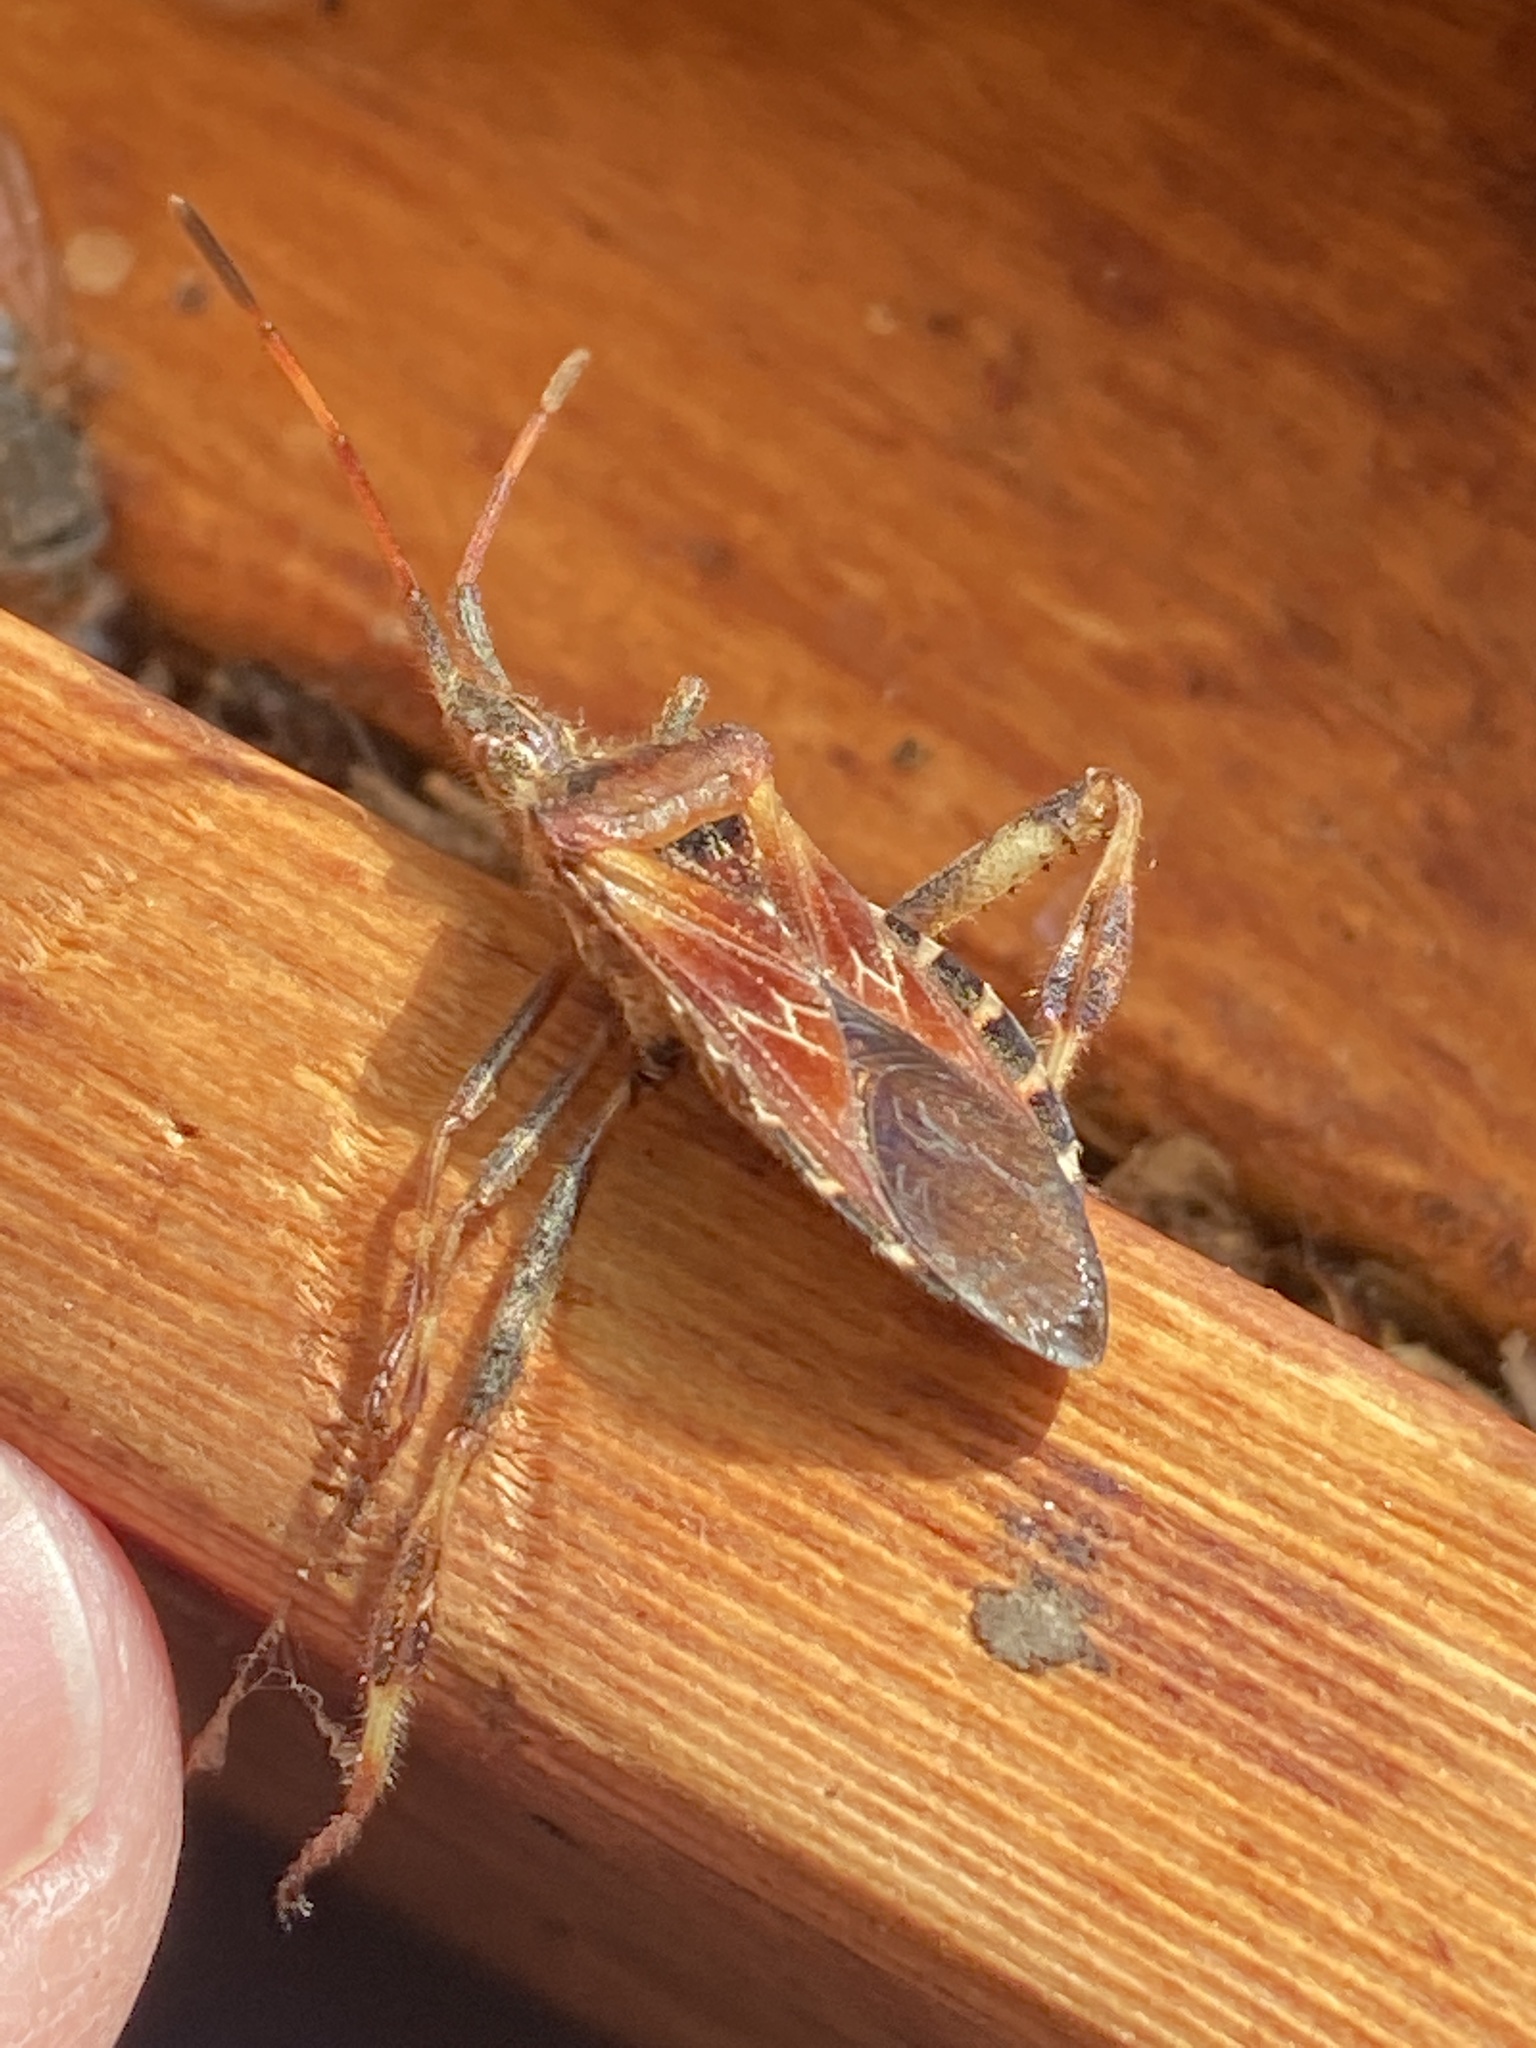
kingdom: Animalia
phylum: Arthropoda
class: Insecta
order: Hemiptera
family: Coreidae
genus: Leptoglossus
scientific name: Leptoglossus occidentalis
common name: Western conifer-seed bug
